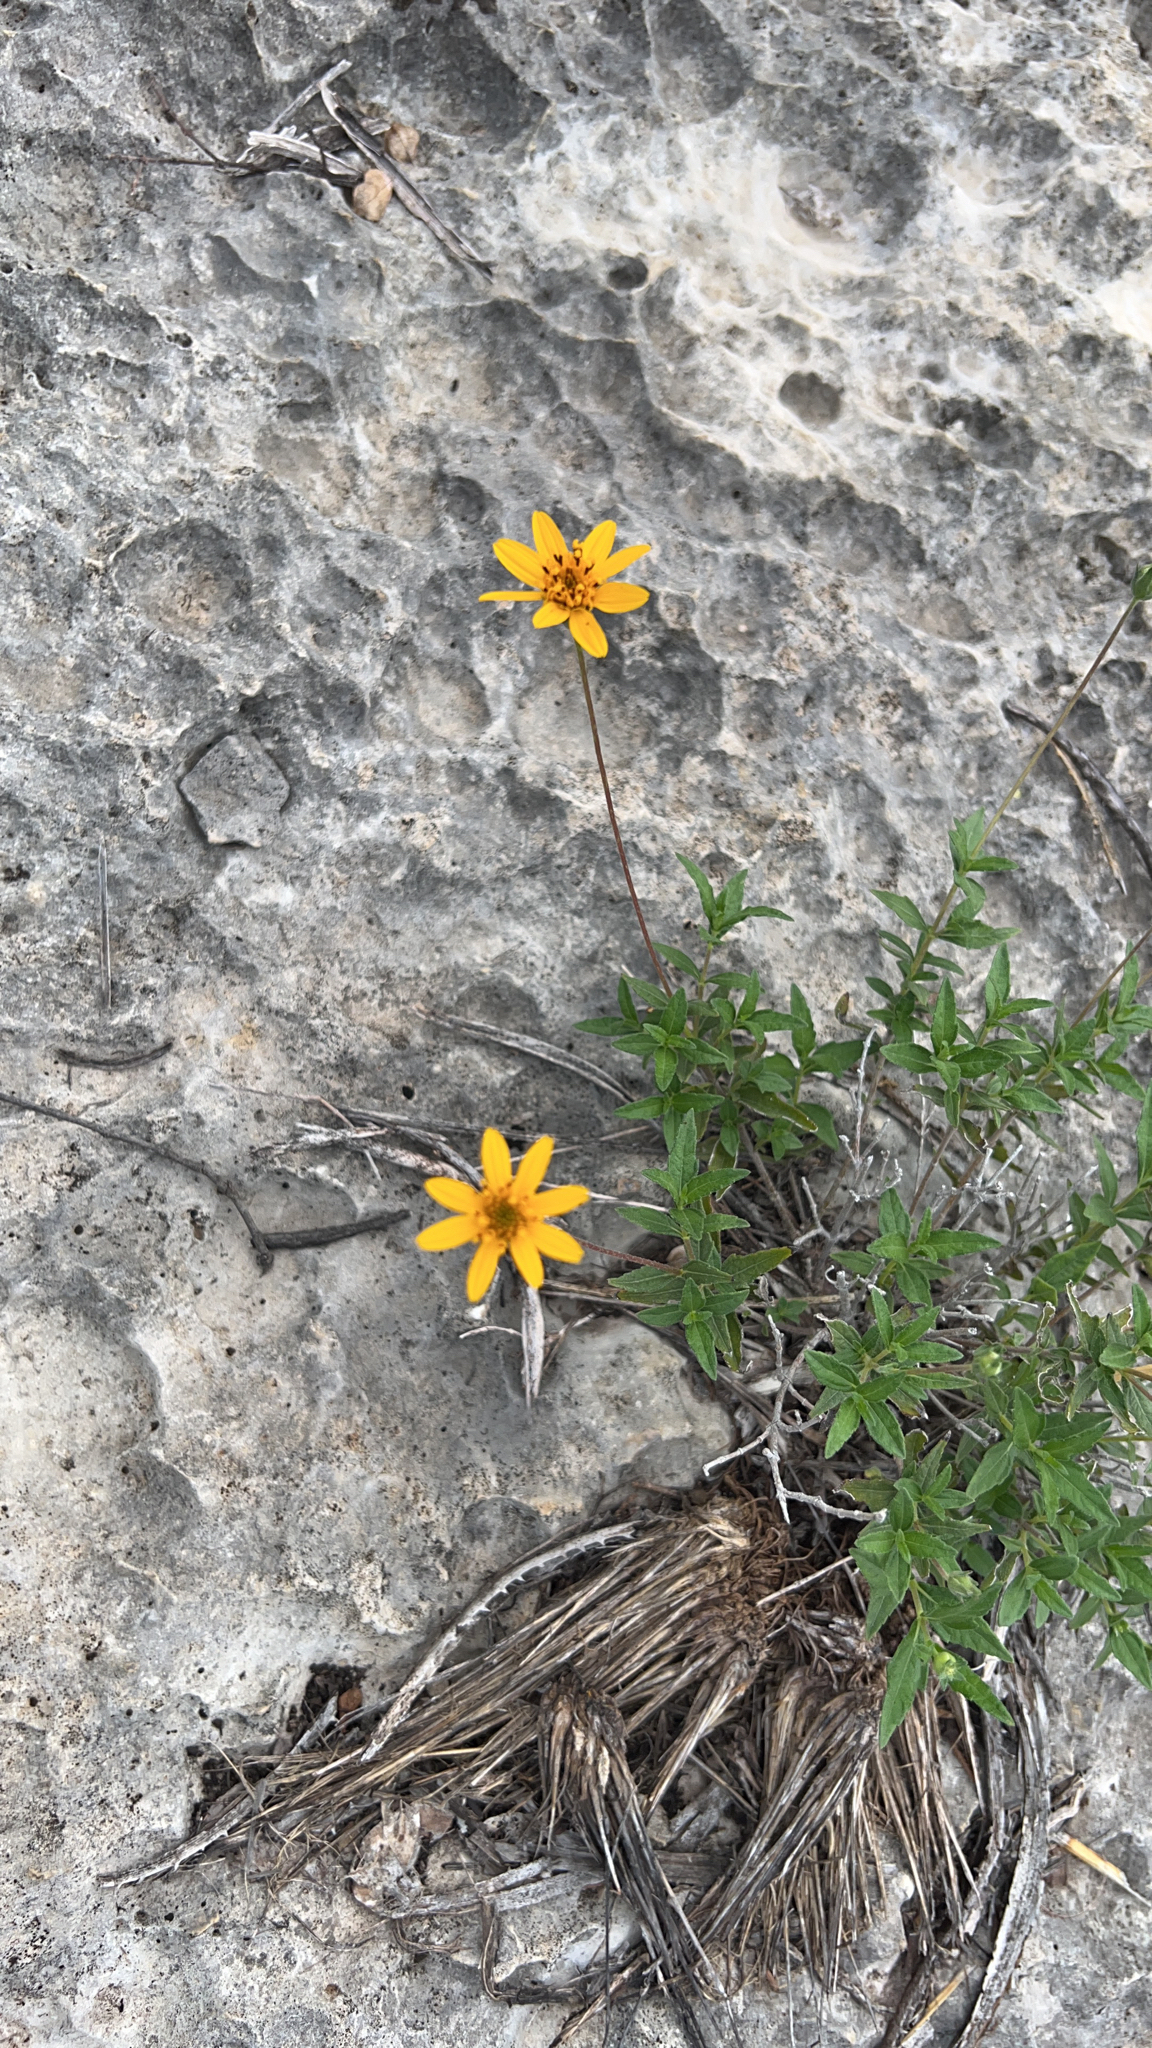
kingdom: Plantae
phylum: Tracheophyta
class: Magnoliopsida
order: Asterales
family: Asteraceae
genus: Wedelia
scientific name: Wedelia acapulcensis
